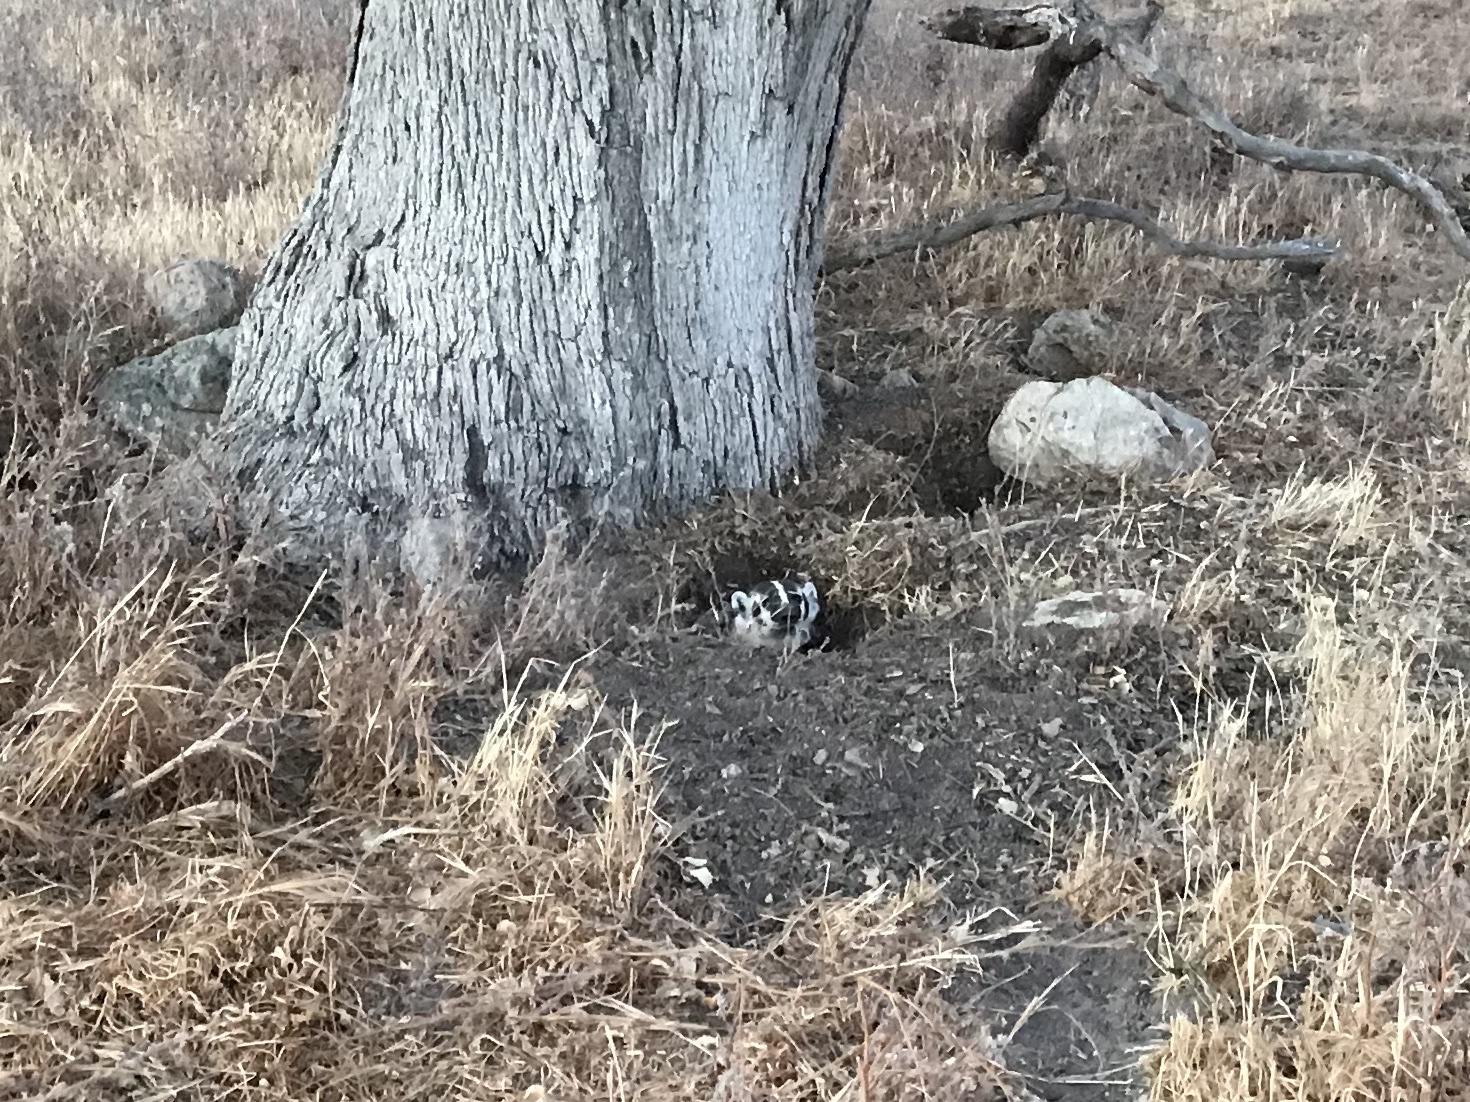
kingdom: Animalia
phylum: Chordata
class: Mammalia
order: Carnivora
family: Mustelidae
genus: Taxidea
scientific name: Taxidea taxus
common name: American badger
